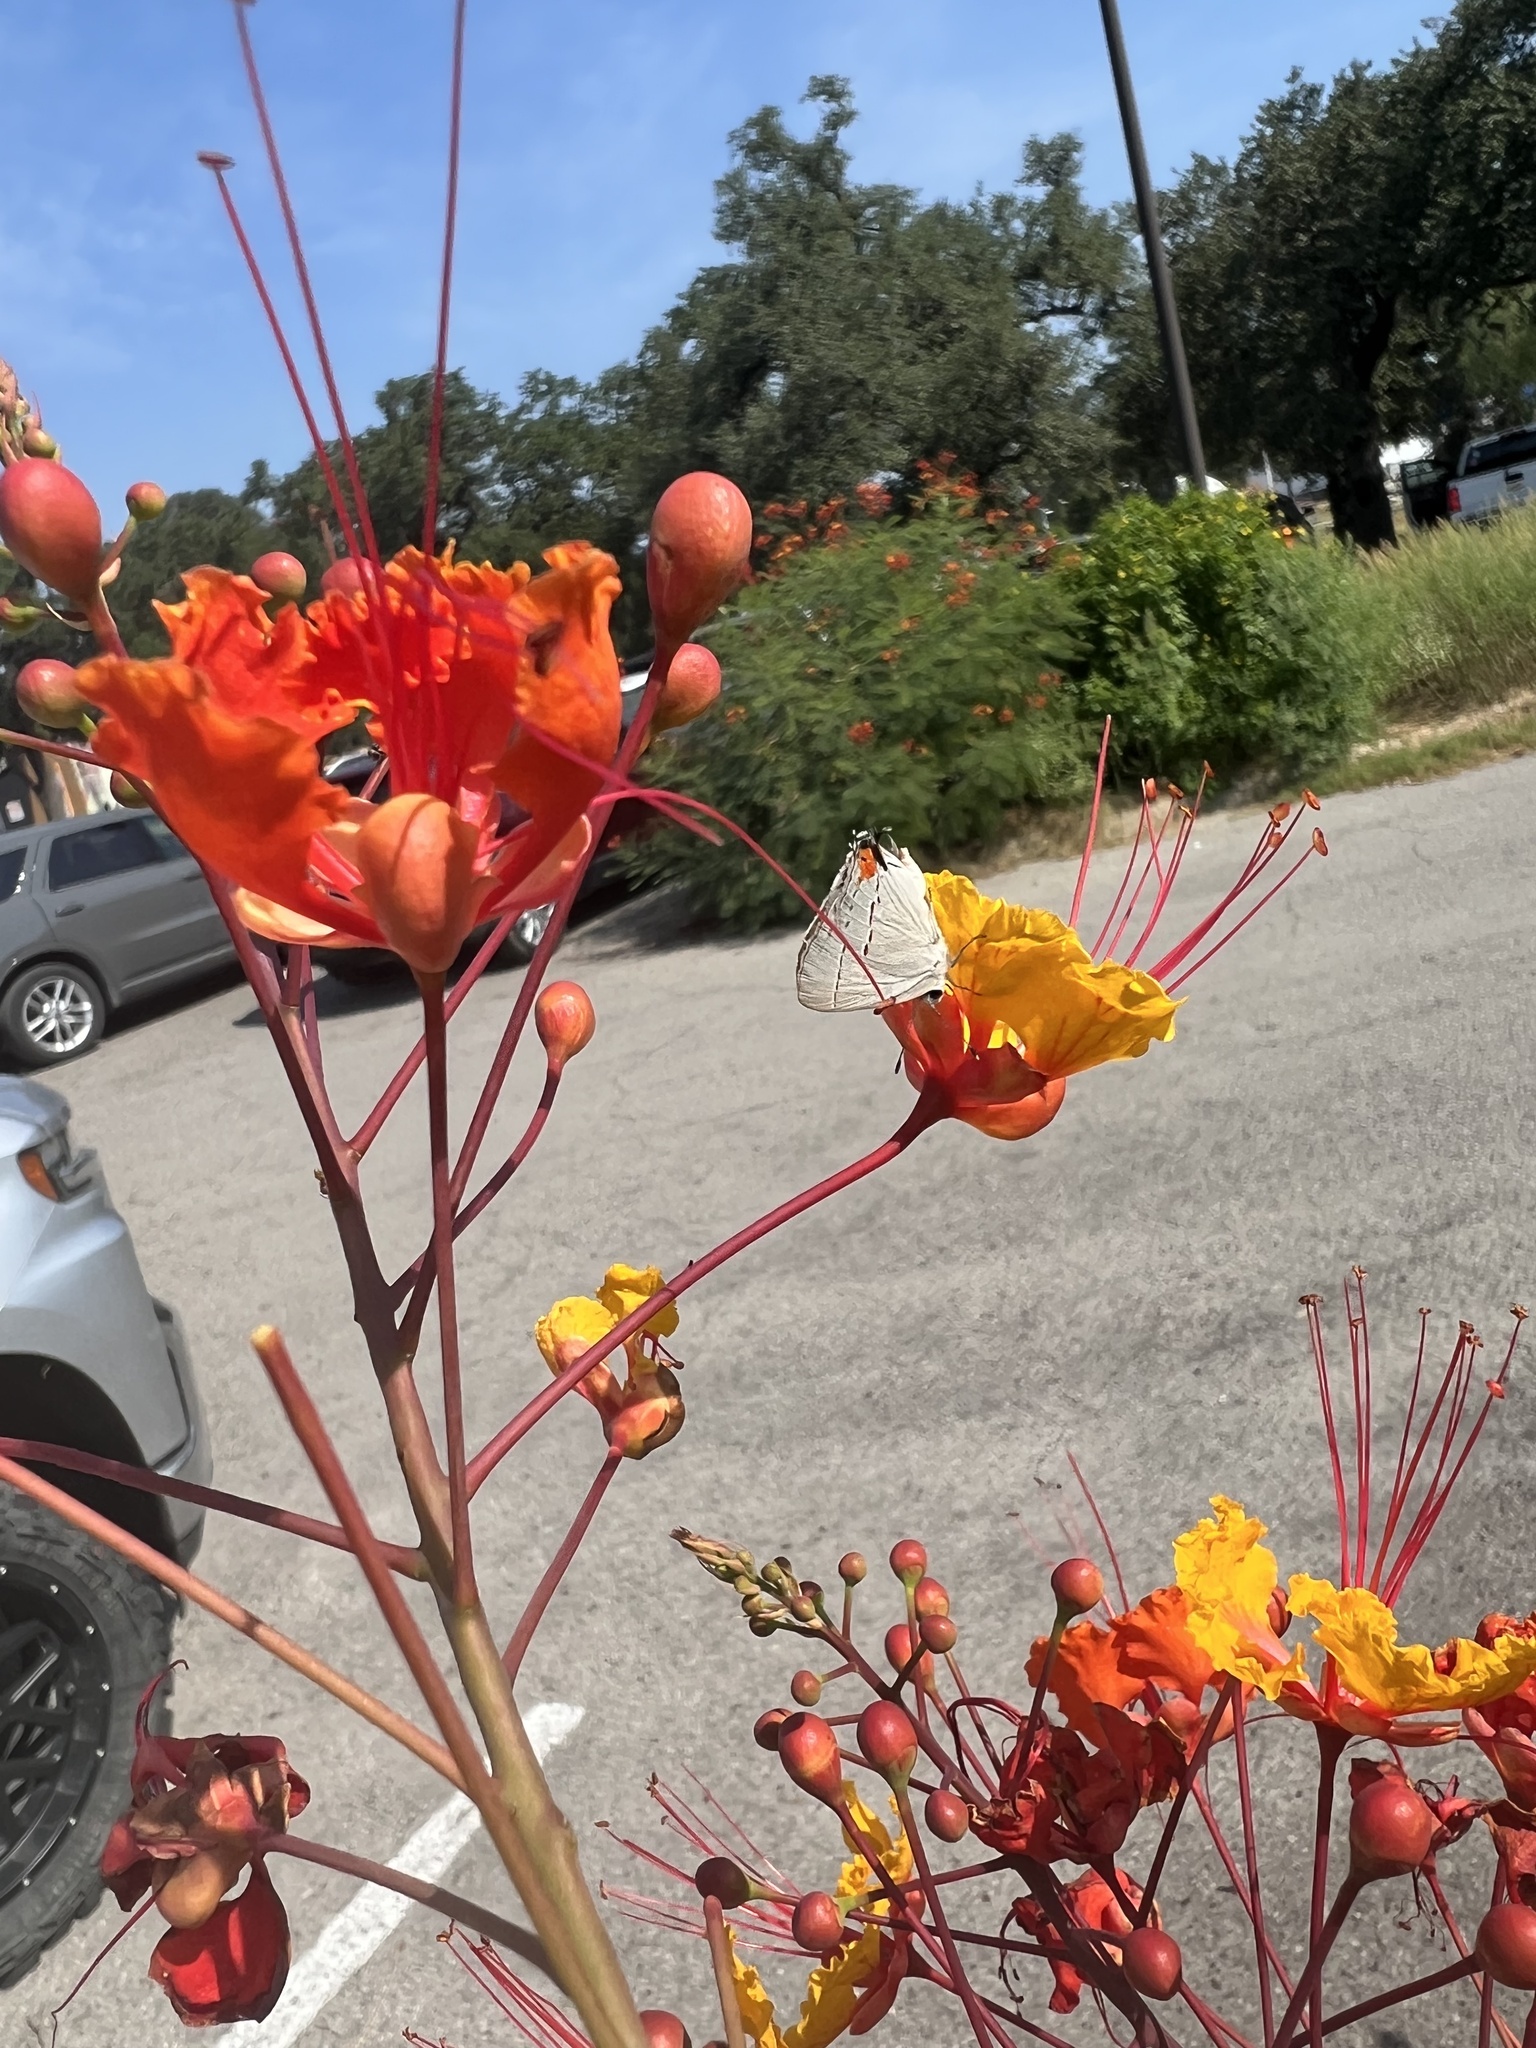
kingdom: Animalia
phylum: Arthropoda
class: Insecta
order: Lepidoptera
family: Lycaenidae
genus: Strymon
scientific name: Strymon melinus
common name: Gray hairstreak
